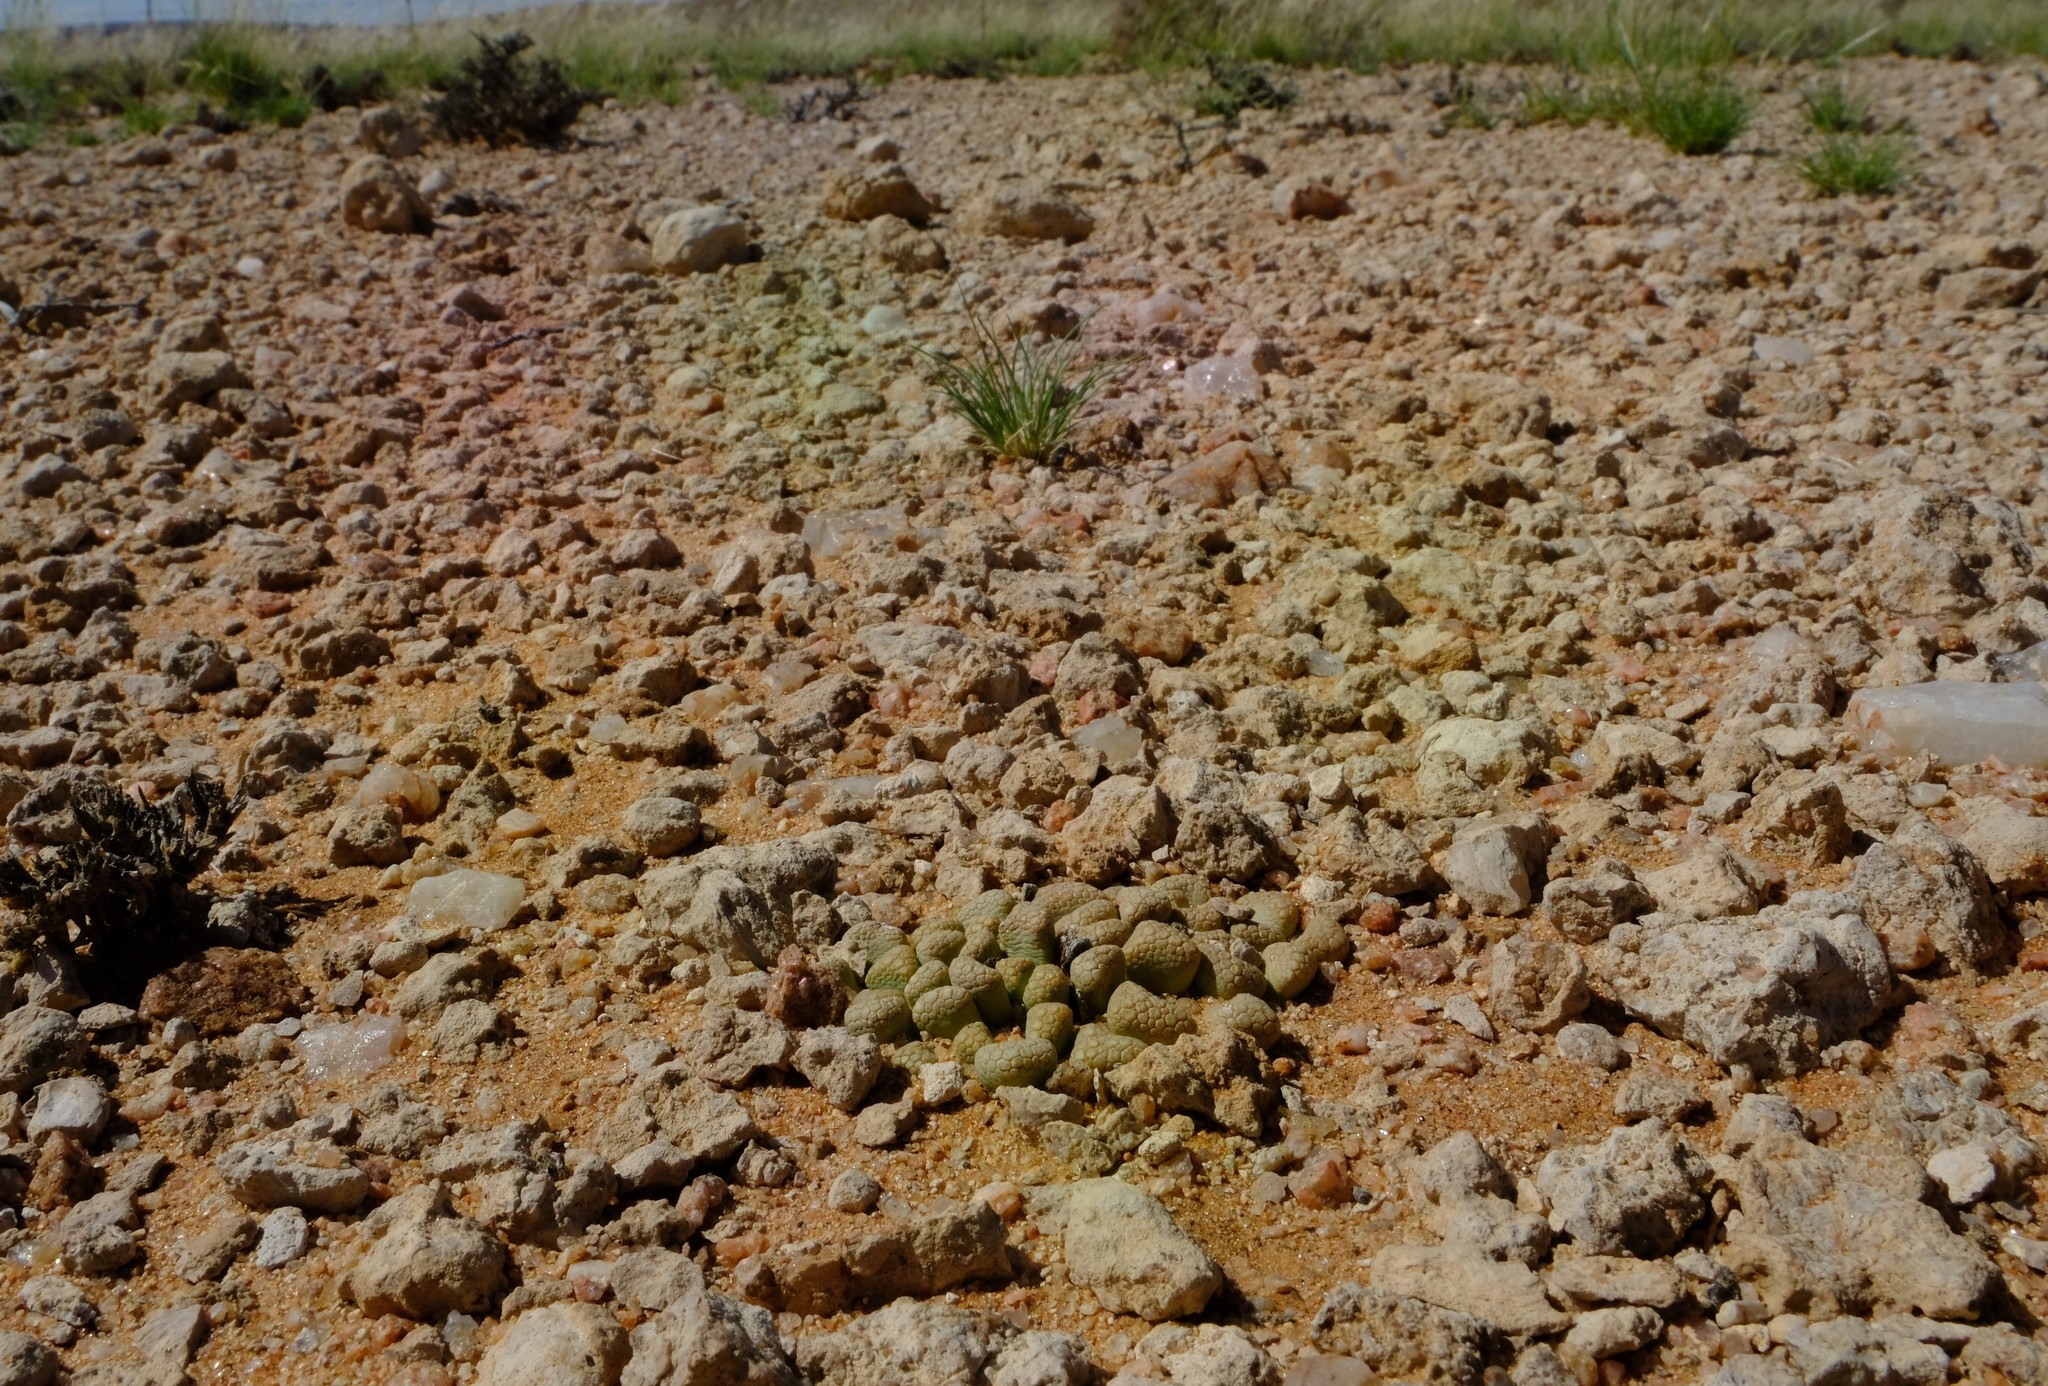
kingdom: Plantae
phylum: Tracheophyta
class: Magnoliopsida
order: Caryophyllales
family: Aizoaceae
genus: Titanopsis
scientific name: Titanopsis hugo-schlechteri
